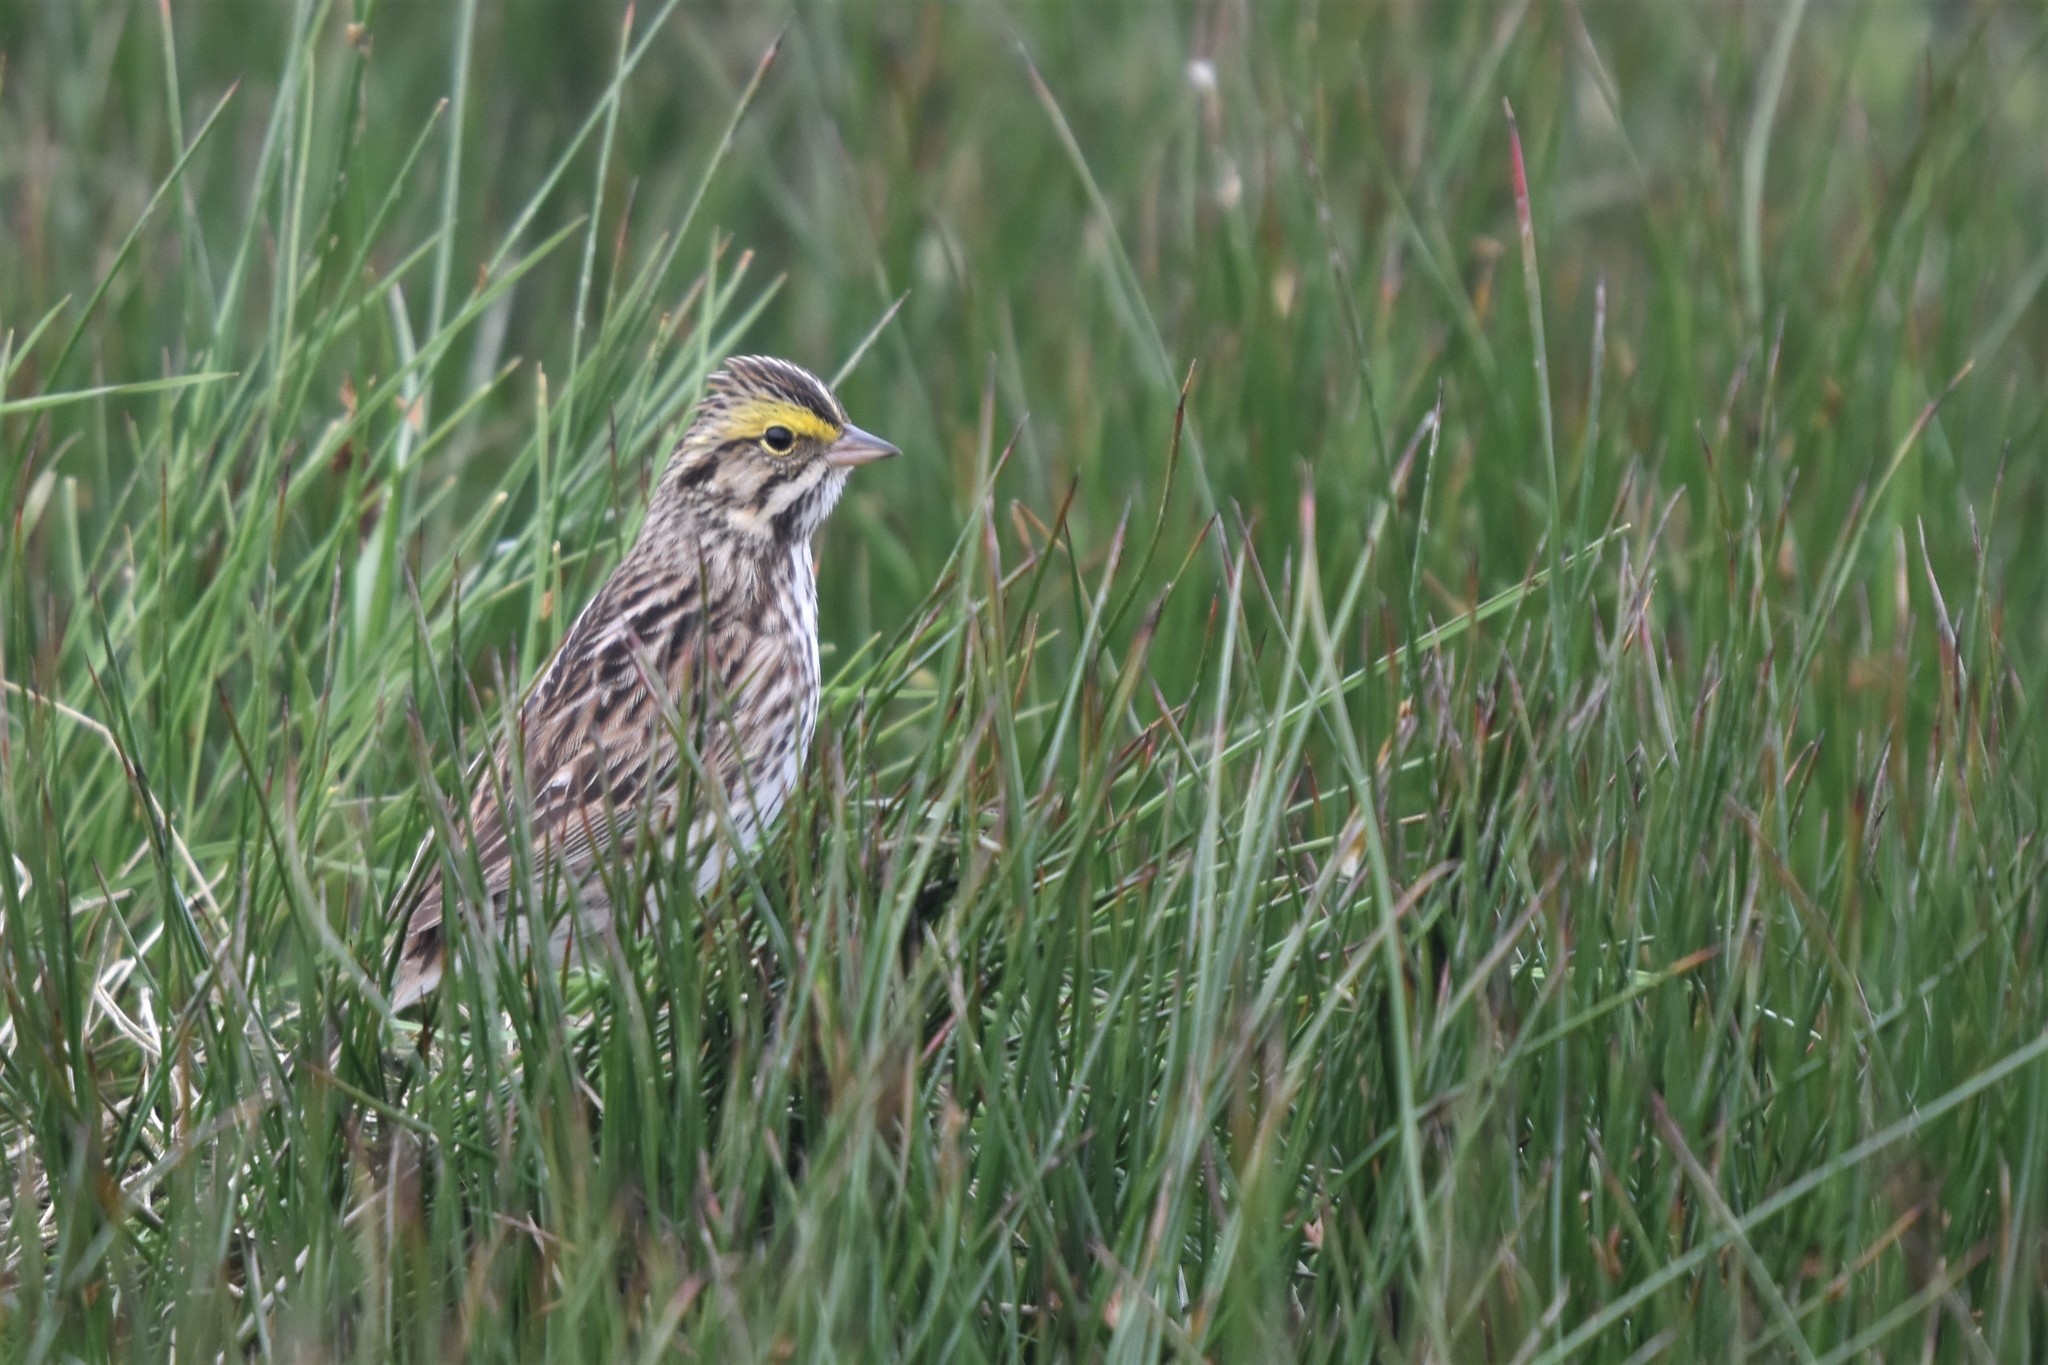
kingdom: Animalia
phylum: Chordata
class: Aves
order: Passeriformes
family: Passerellidae
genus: Passerculus
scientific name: Passerculus sandwichensis
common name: Savannah sparrow
